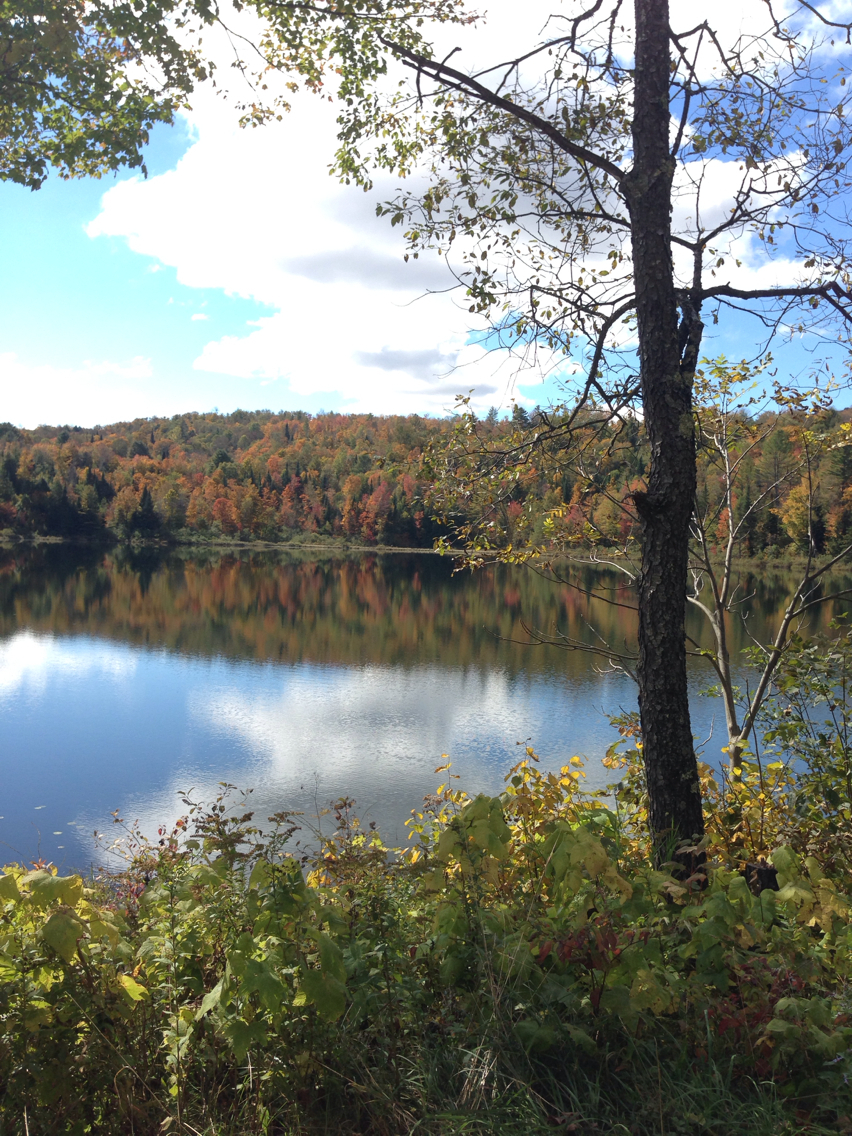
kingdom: Plantae
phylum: Tracheophyta
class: Magnoliopsida
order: Rosales
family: Rosaceae
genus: Prunus
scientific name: Prunus serotina
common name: Black cherry
